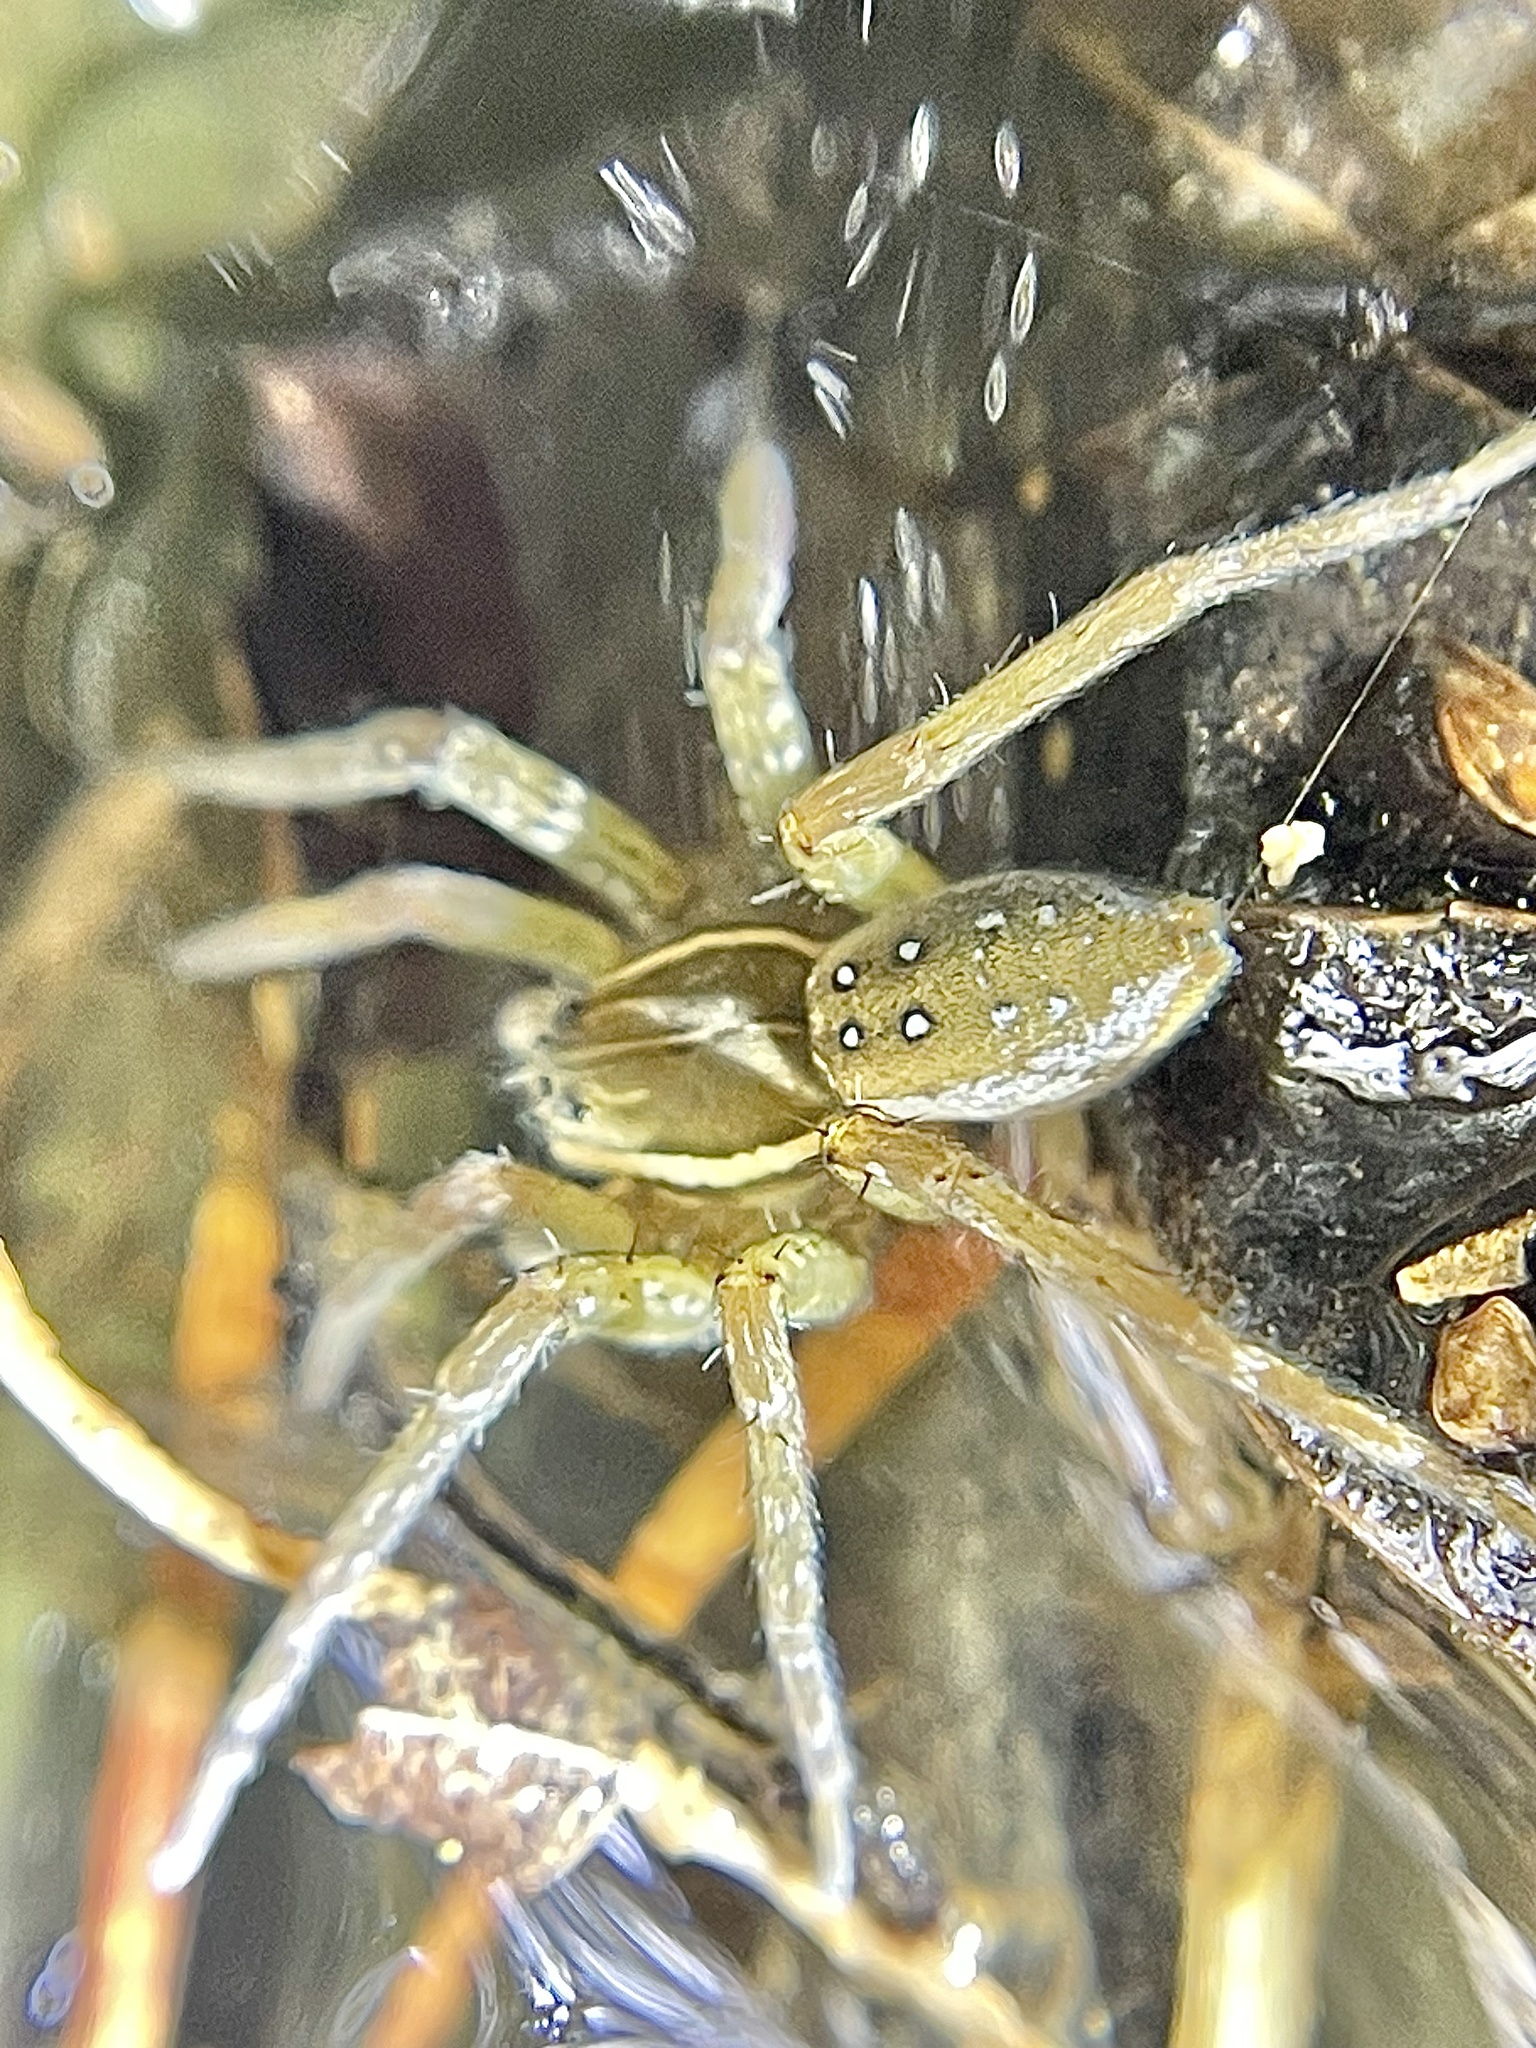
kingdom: Animalia
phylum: Arthropoda
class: Arachnida
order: Araneae
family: Pisauridae
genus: Dolomedes
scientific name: Dolomedes triton
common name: Six-spotted fishing spider
